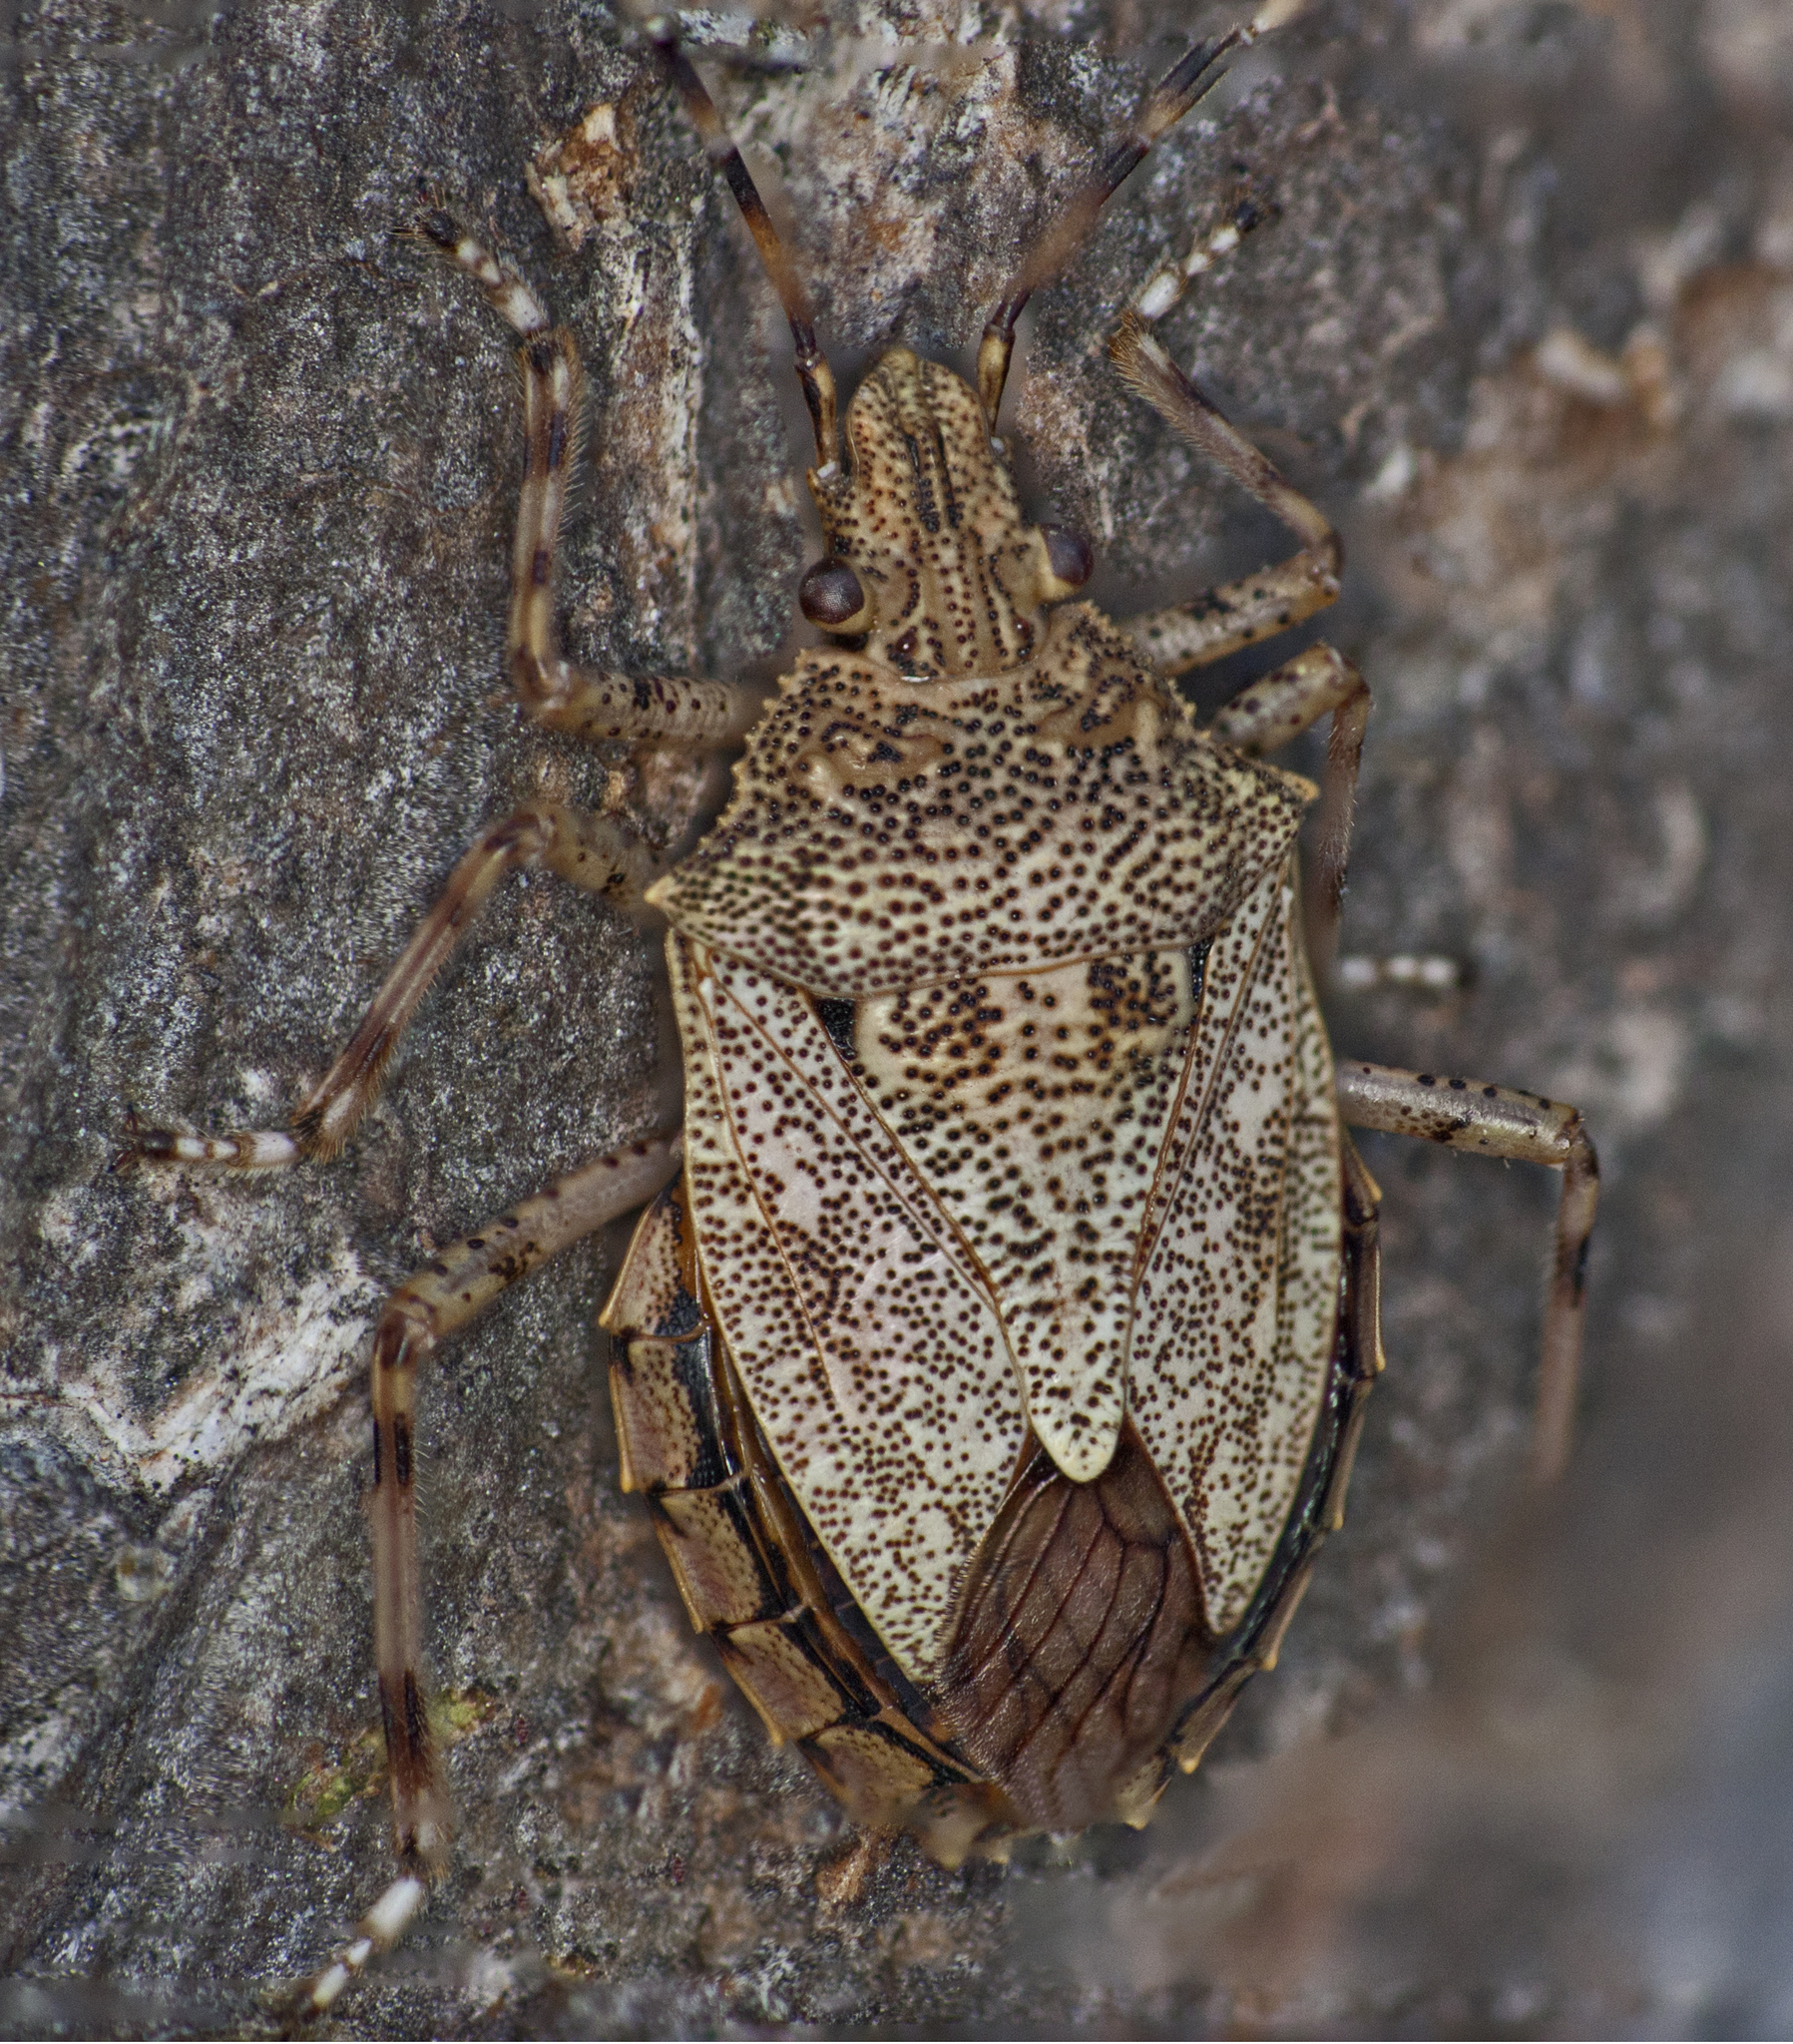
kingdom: Animalia
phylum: Arthropoda
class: Insecta
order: Hemiptera
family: Pentatomidae
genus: Anchises
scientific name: Anchises
